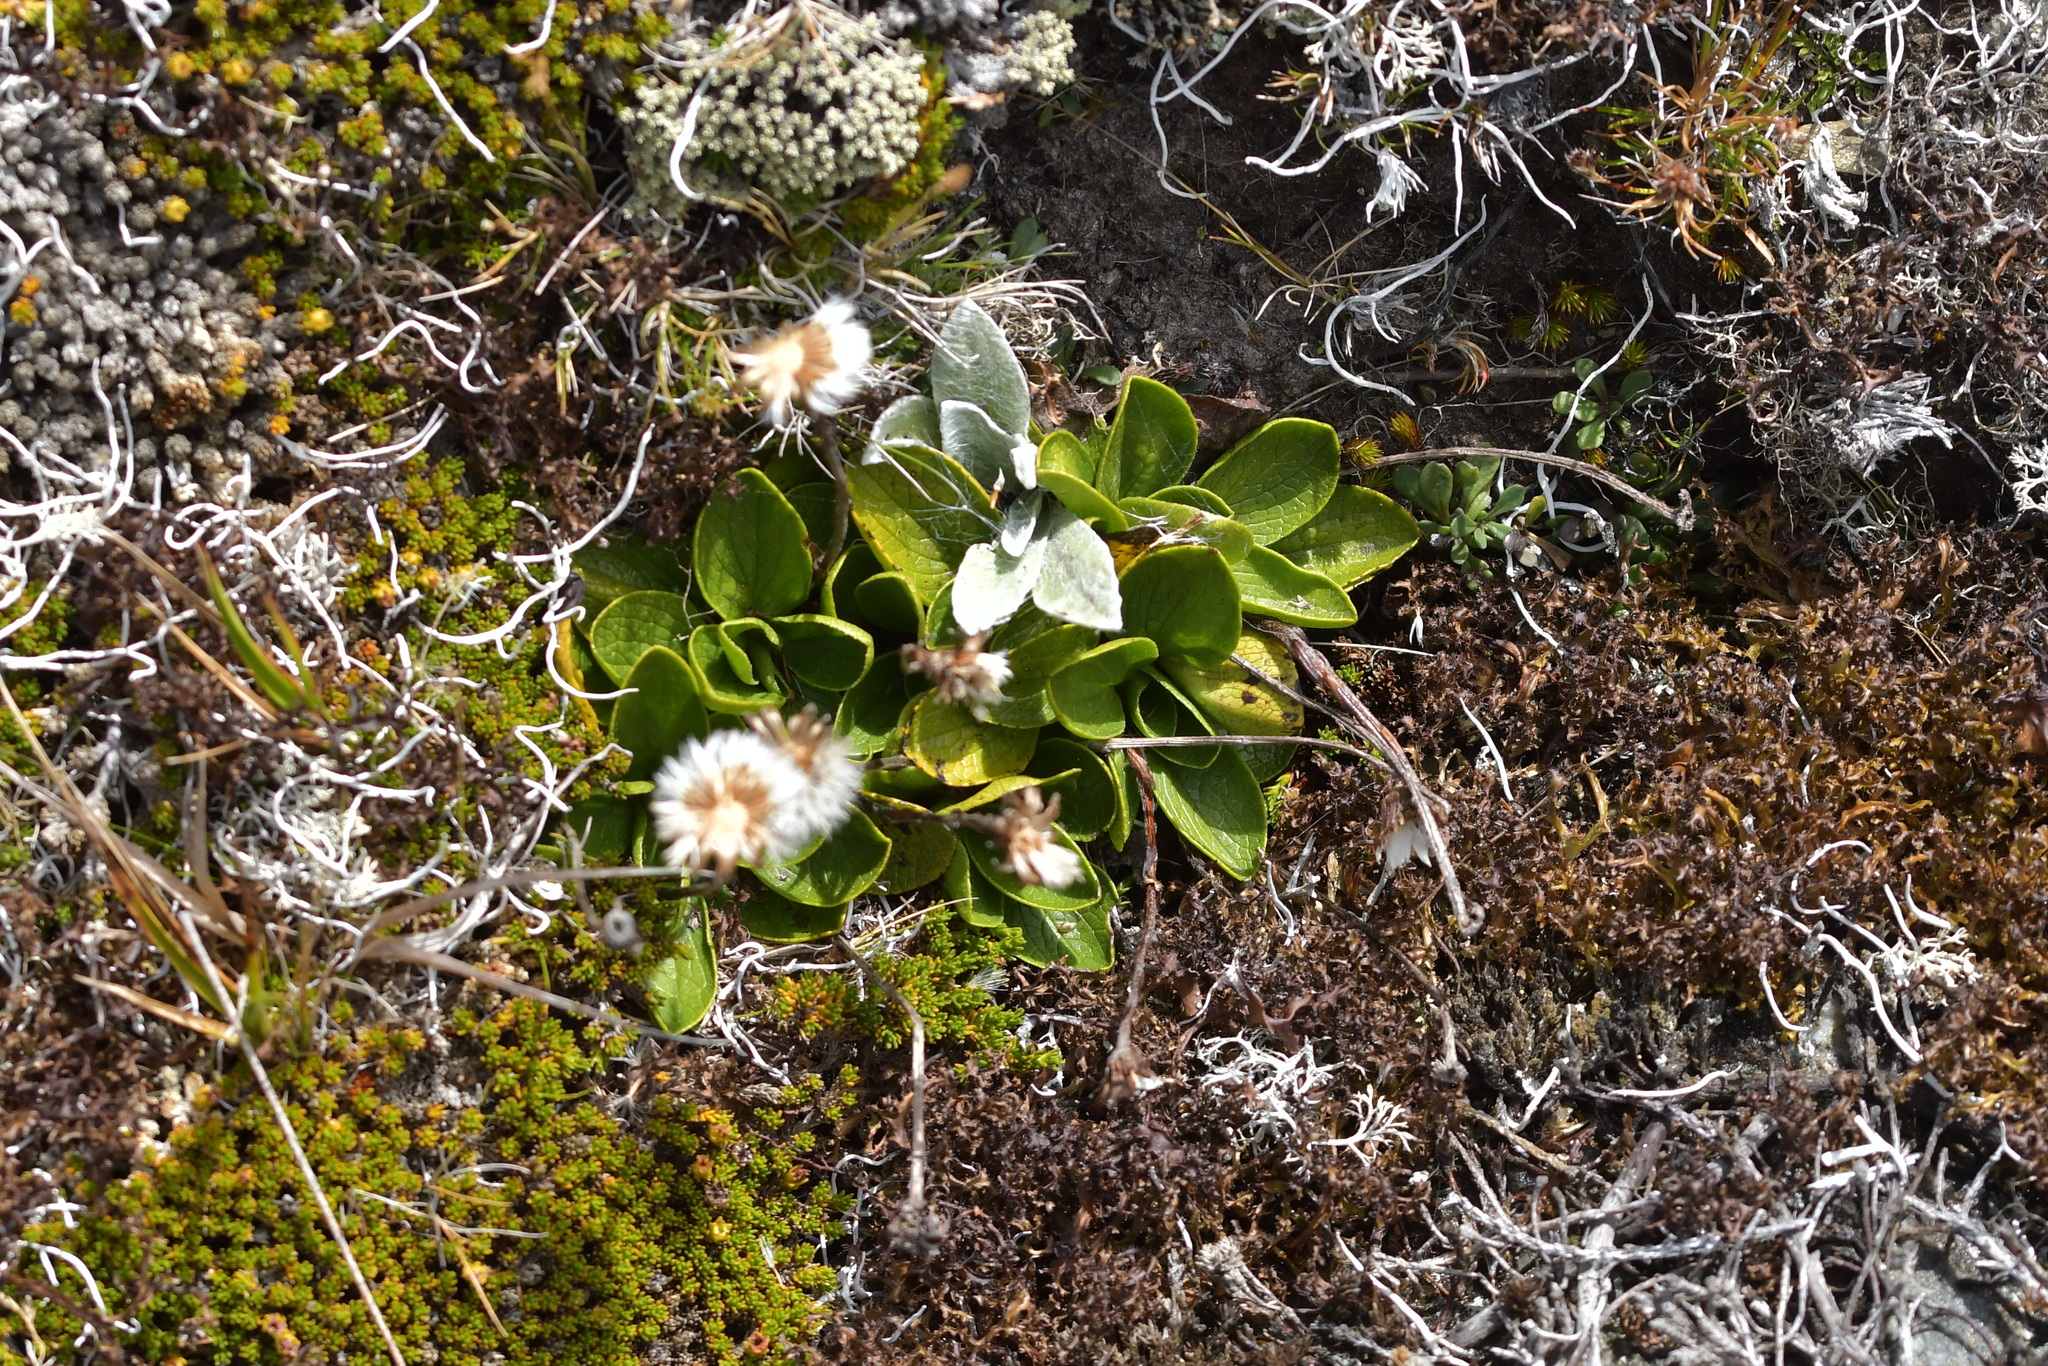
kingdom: Plantae
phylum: Tracheophyta
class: Magnoliopsida
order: Asterales
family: Asteraceae
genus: Brachyglottis
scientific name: Brachyglottis bellidioides
